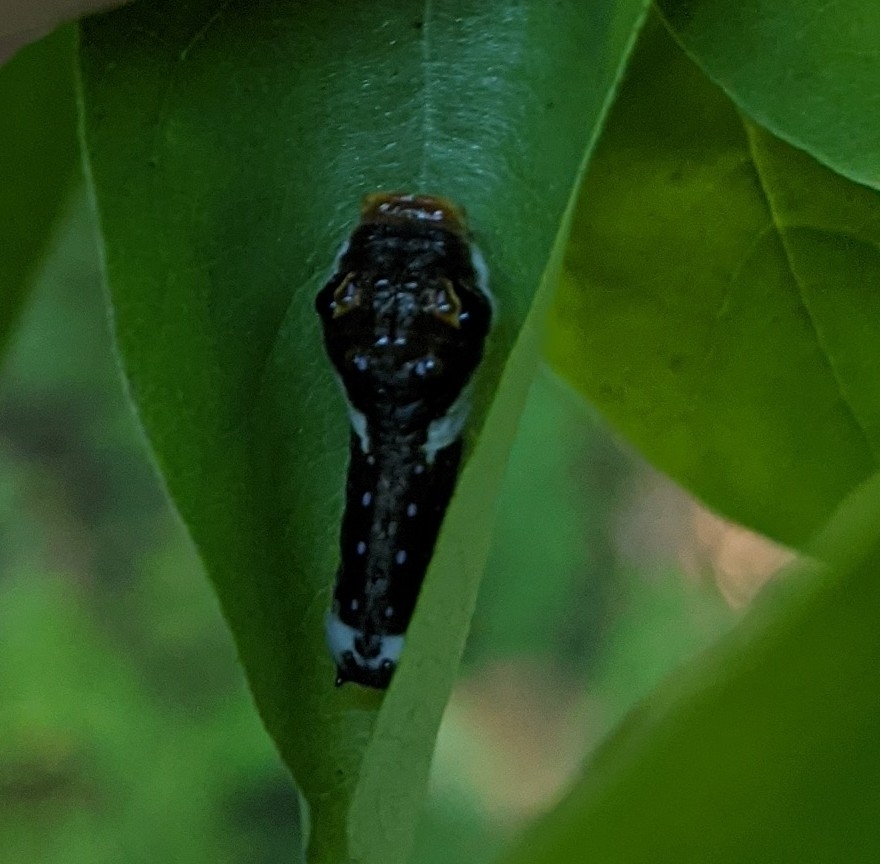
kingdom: Animalia
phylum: Arthropoda
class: Insecta
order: Lepidoptera
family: Papilionidae
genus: Papilio
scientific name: Papilio troilus
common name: Spicebush swallowtail
